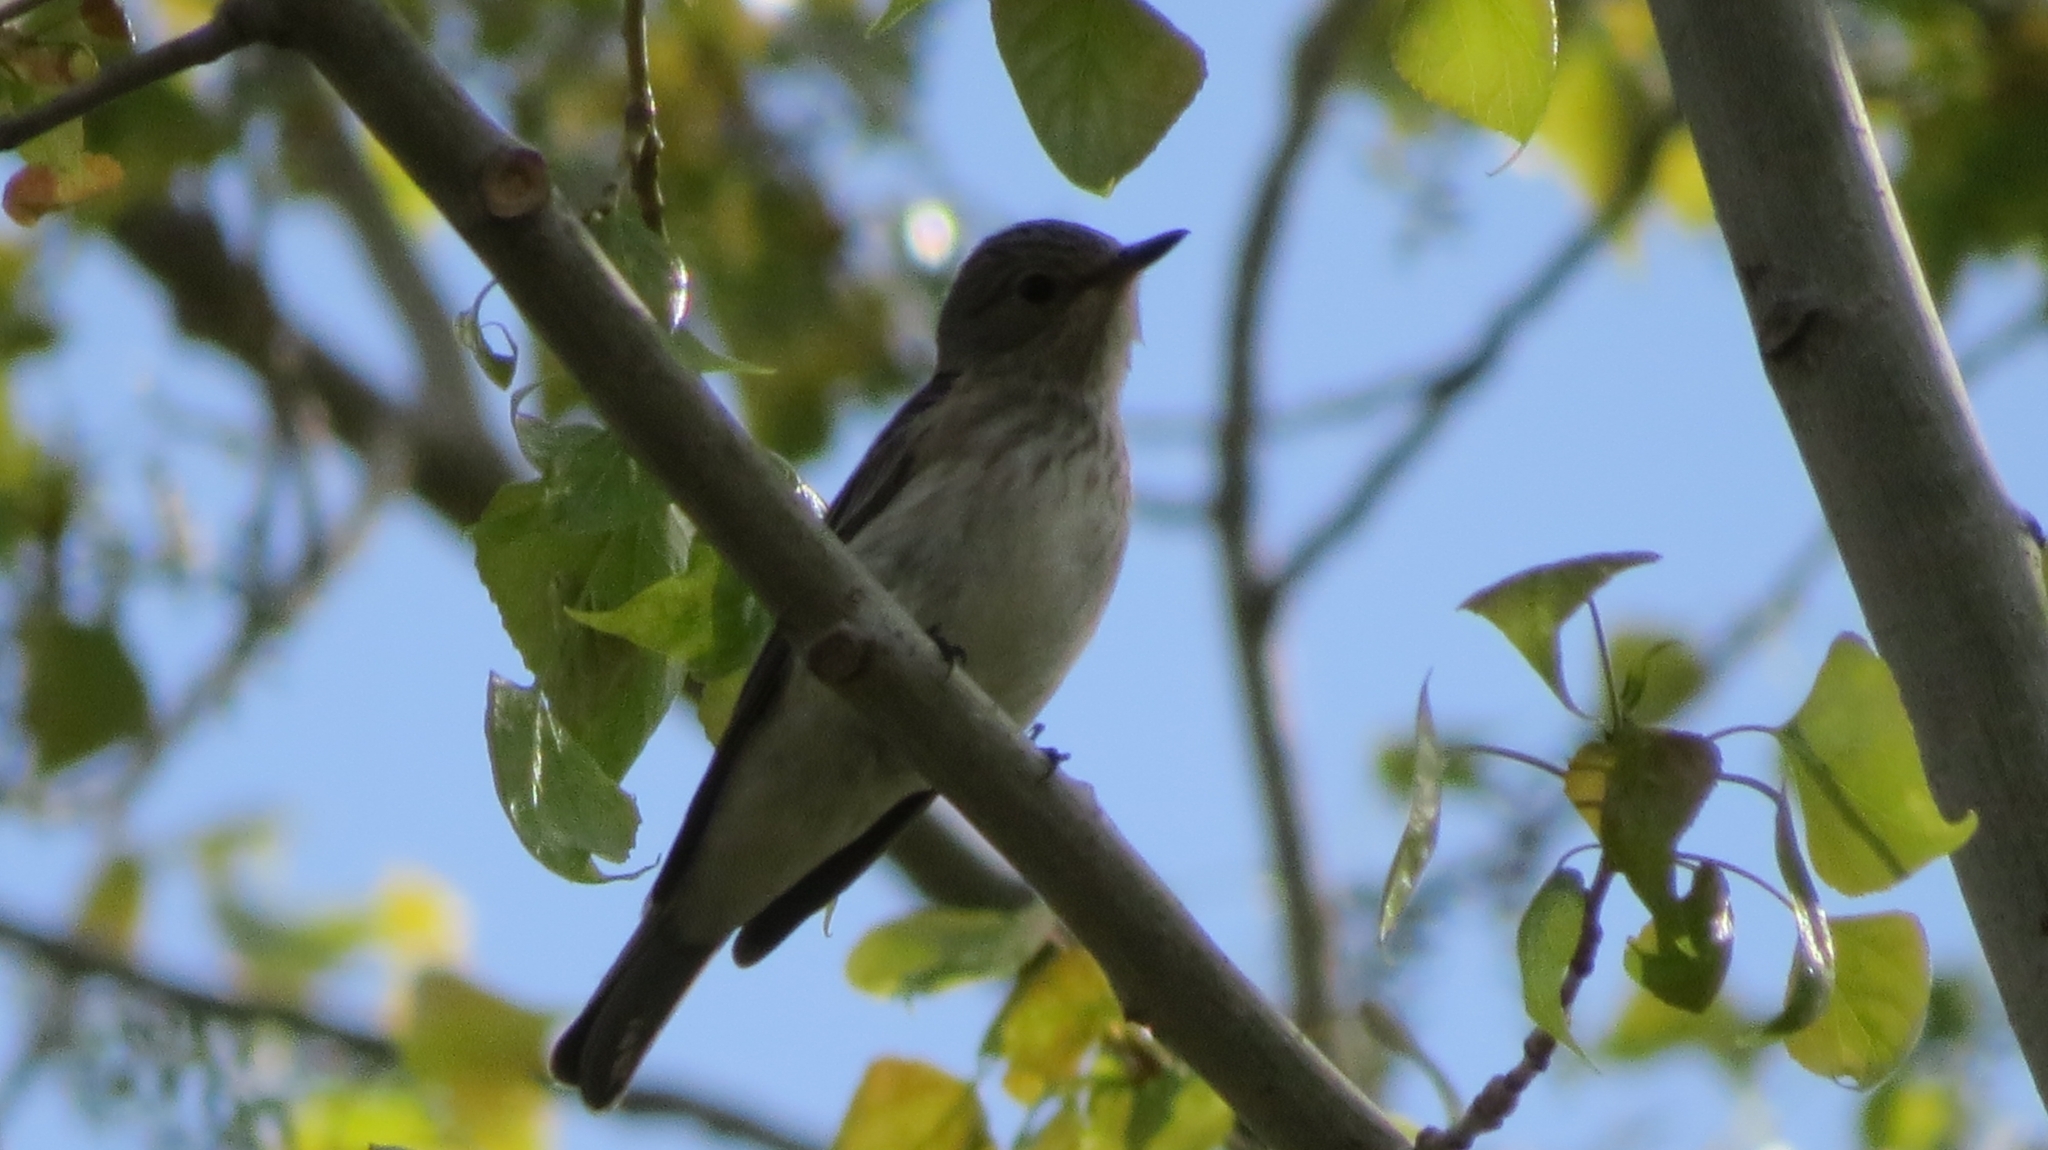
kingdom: Animalia
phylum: Chordata
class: Aves
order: Passeriformes
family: Muscicapidae
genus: Muscicapa
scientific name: Muscicapa striata
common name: Spotted flycatcher
